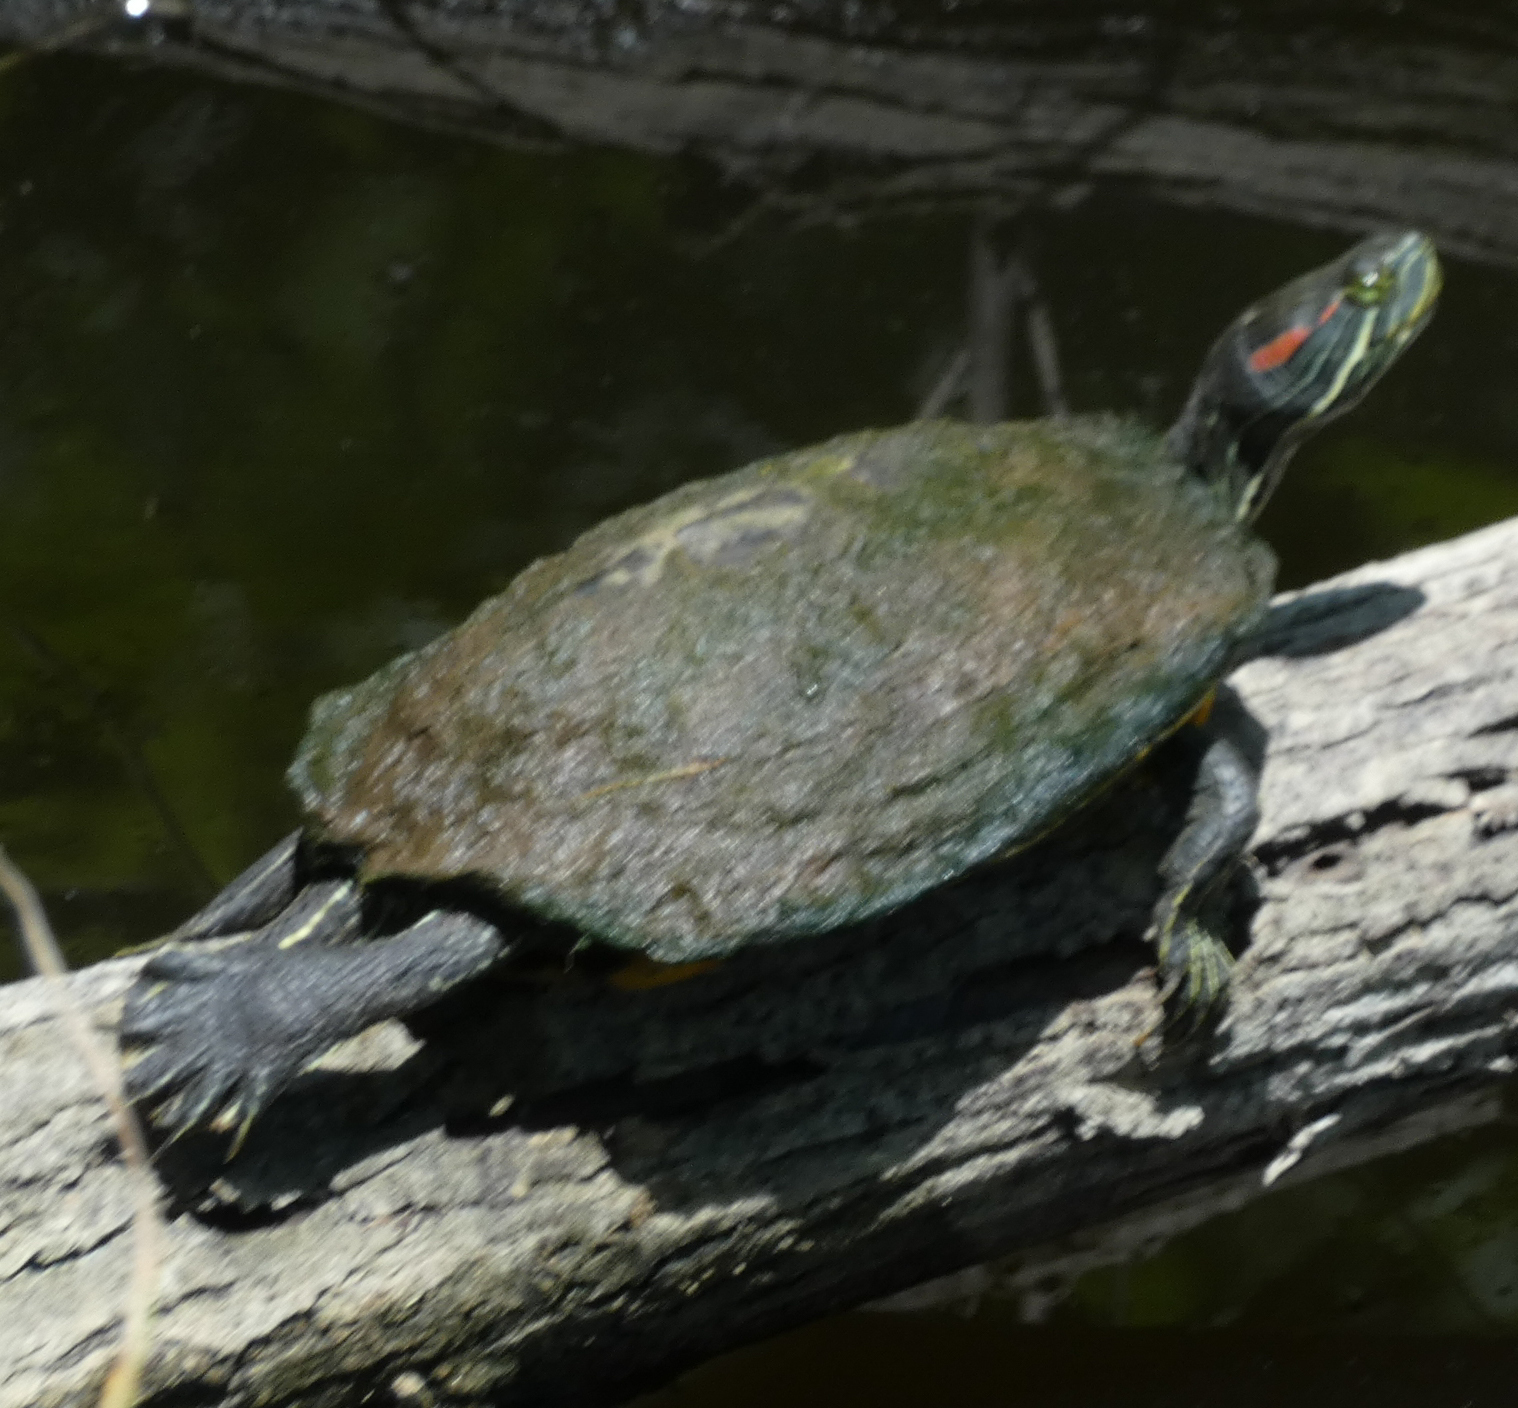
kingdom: Animalia
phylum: Chordata
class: Testudines
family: Emydidae
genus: Trachemys
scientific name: Trachemys scripta
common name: Slider
